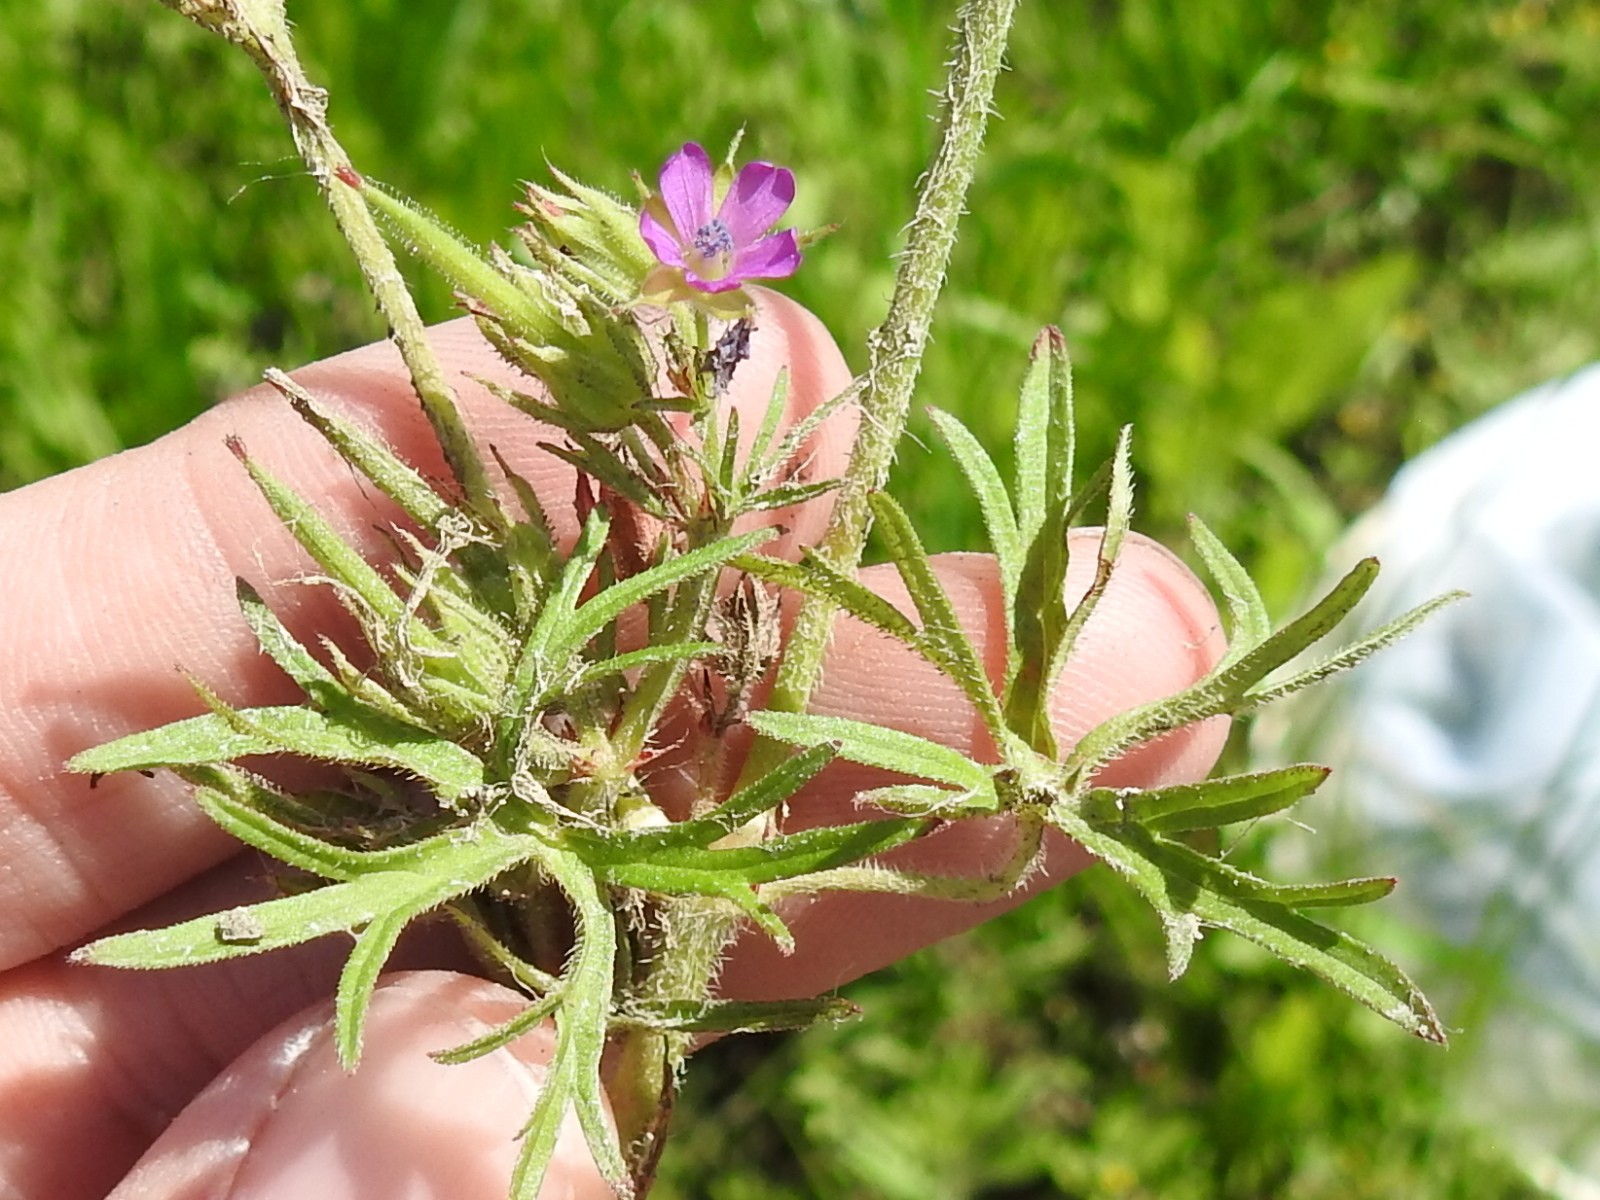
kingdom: Plantae
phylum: Tracheophyta
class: Magnoliopsida
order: Geraniales
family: Geraniaceae
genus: Geranium
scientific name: Geranium dissectum
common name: Cut-leaved crane's-bill
